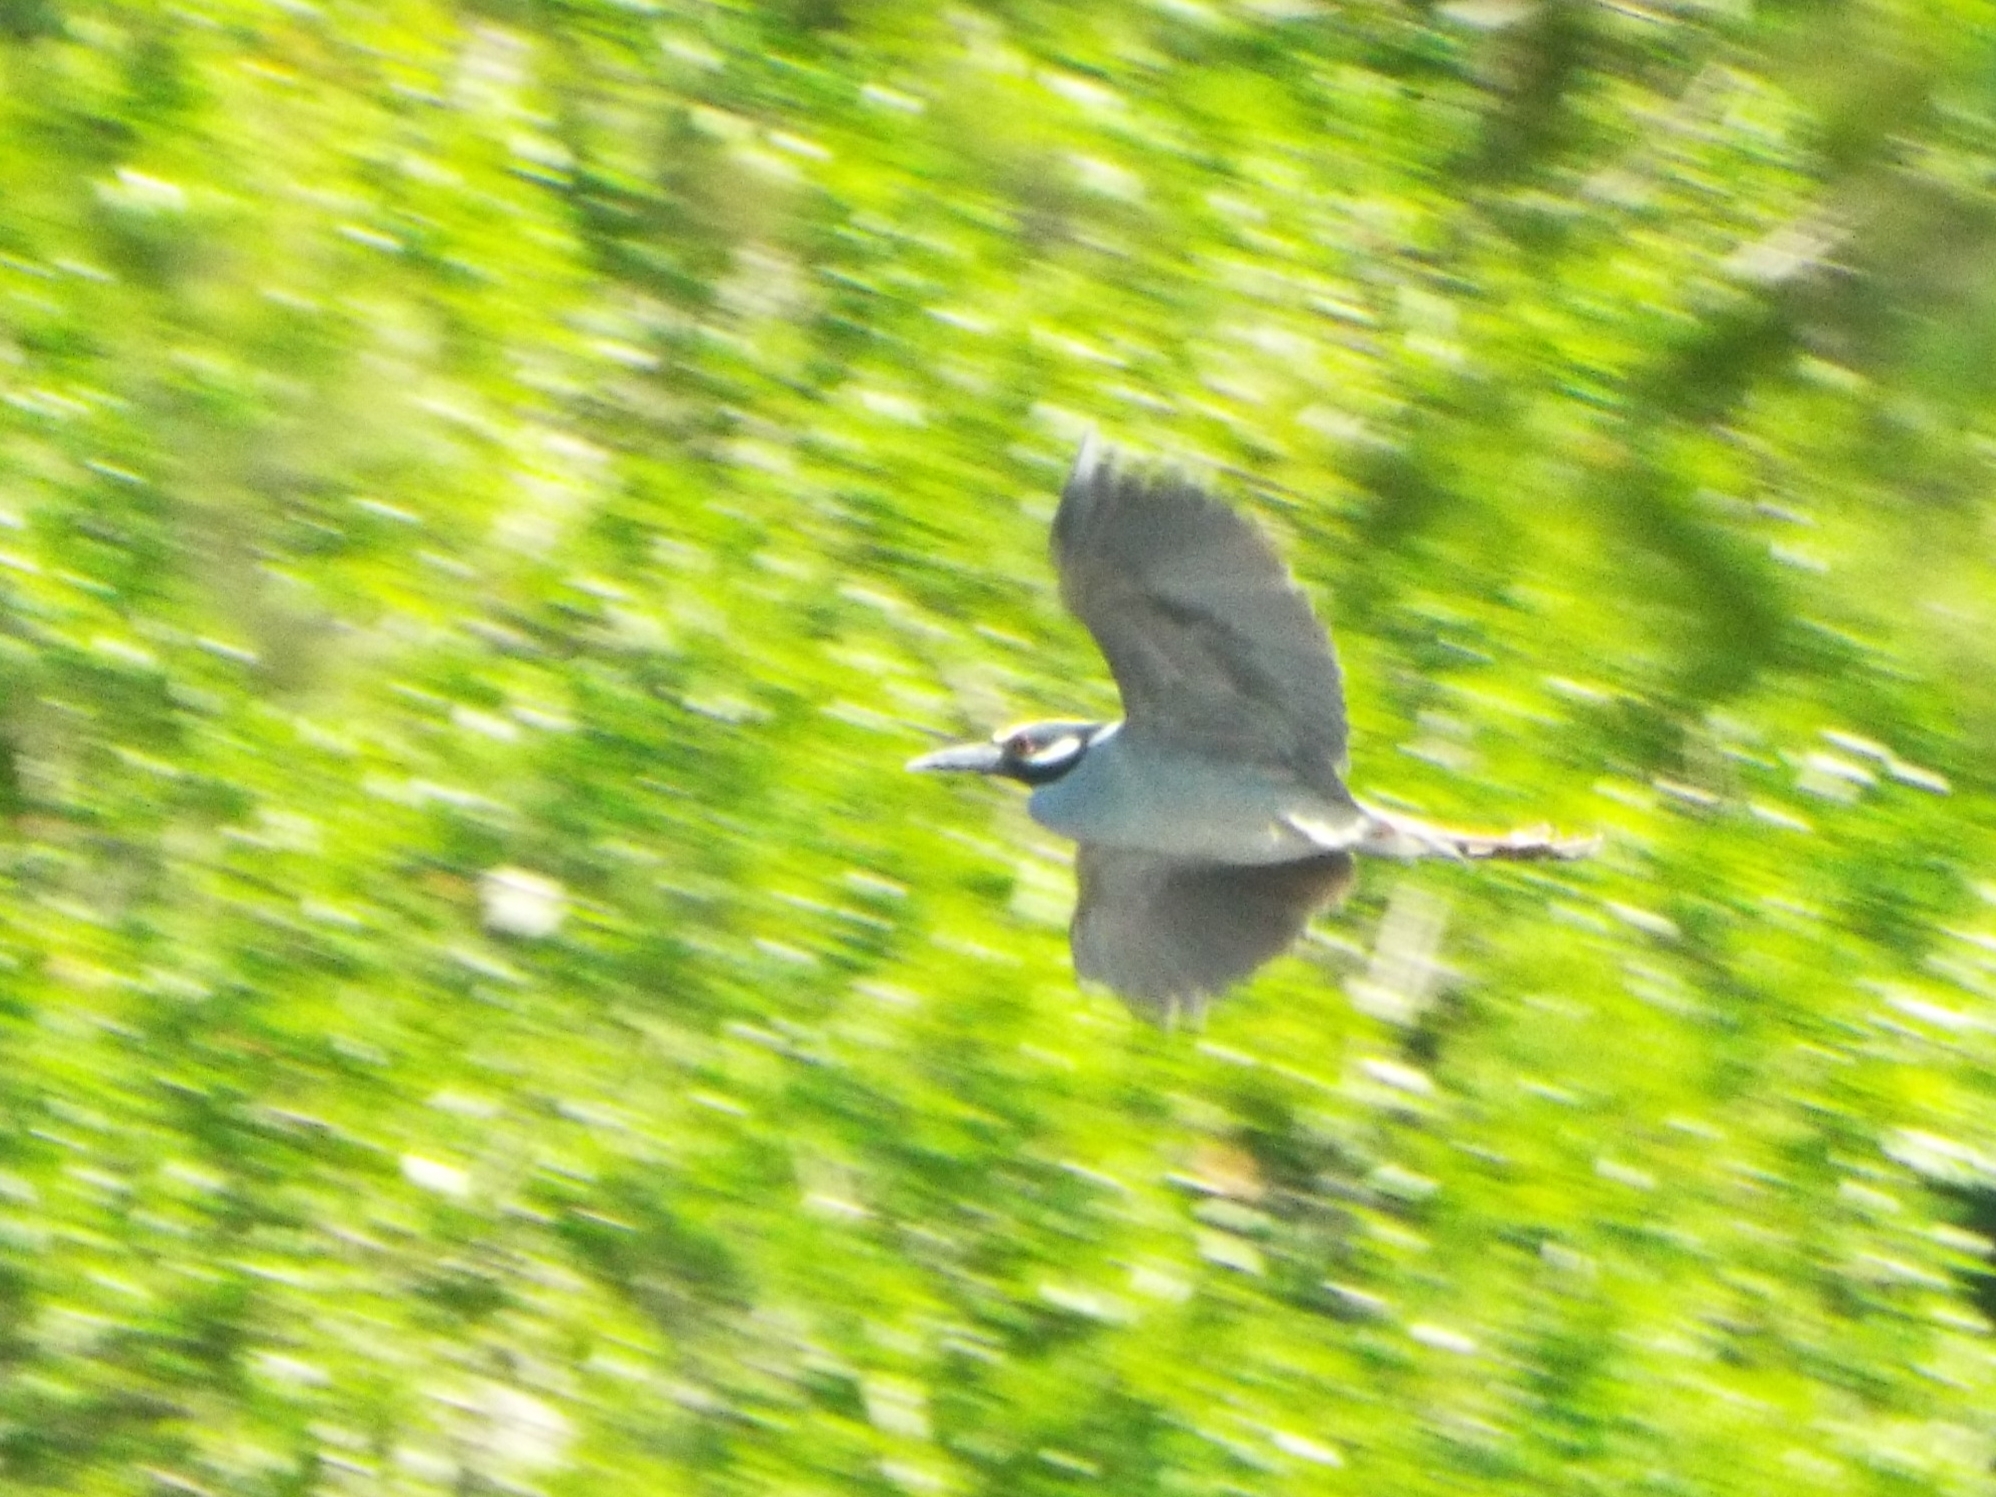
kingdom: Animalia
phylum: Chordata
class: Aves
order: Pelecaniformes
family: Ardeidae
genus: Nyctanassa
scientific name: Nyctanassa violacea
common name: Yellow-crowned night heron
